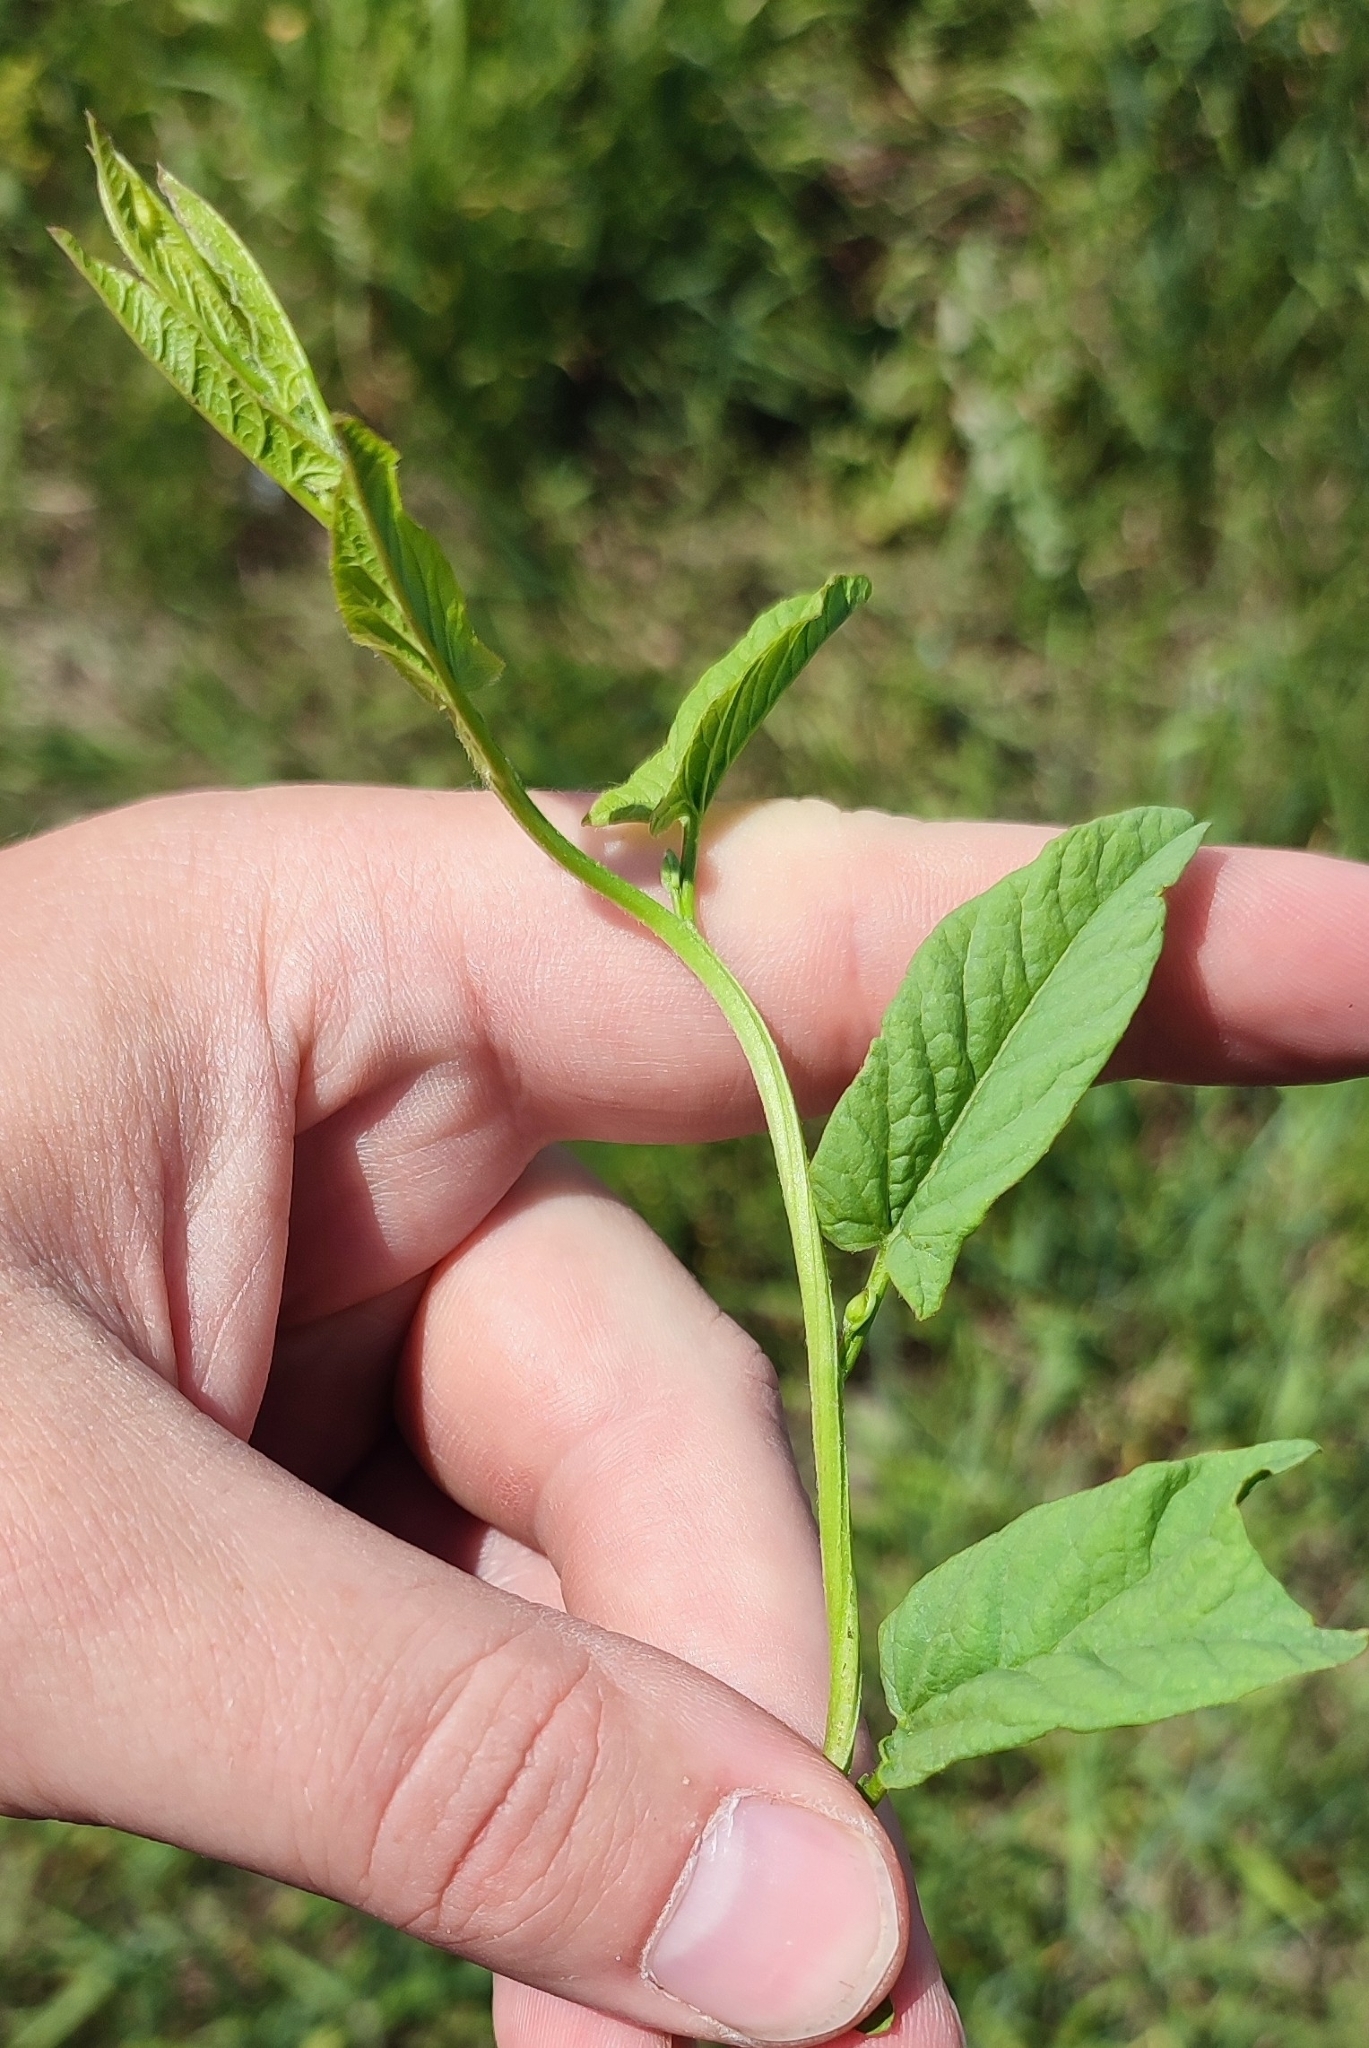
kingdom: Plantae
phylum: Tracheophyta
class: Magnoliopsida
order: Solanales
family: Convolvulaceae
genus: Convolvulus
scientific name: Convolvulus arvensis
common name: Field bindweed
